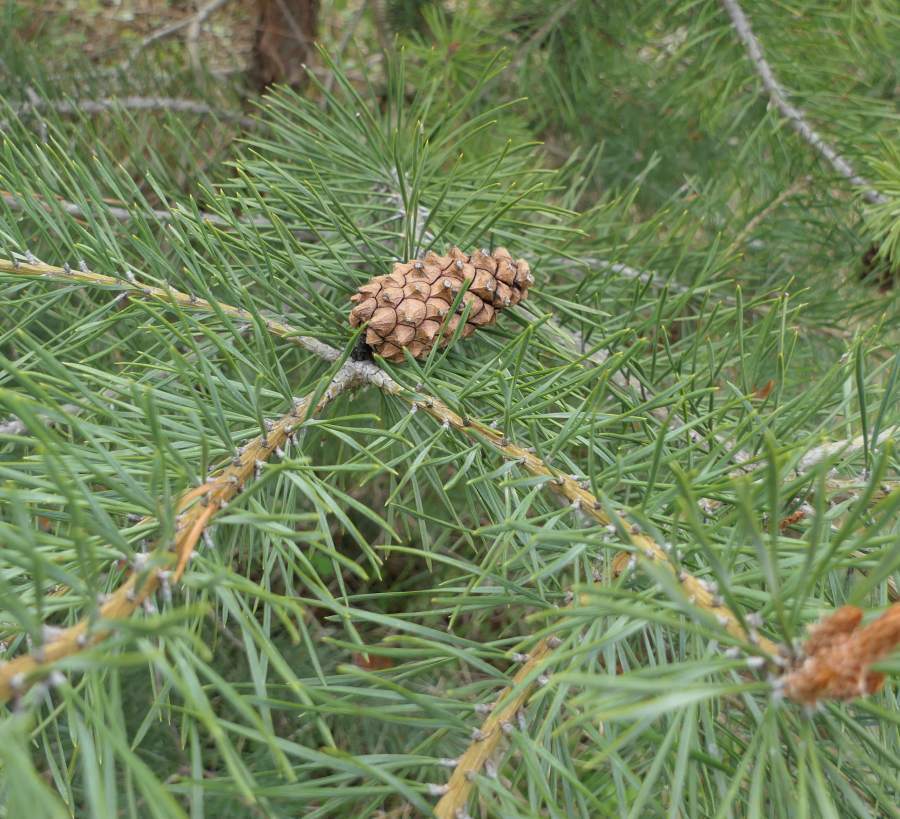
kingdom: Plantae
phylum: Tracheophyta
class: Pinopsida
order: Pinales
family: Pinaceae
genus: Pinus
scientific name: Pinus sylvestris
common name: Scots pine
